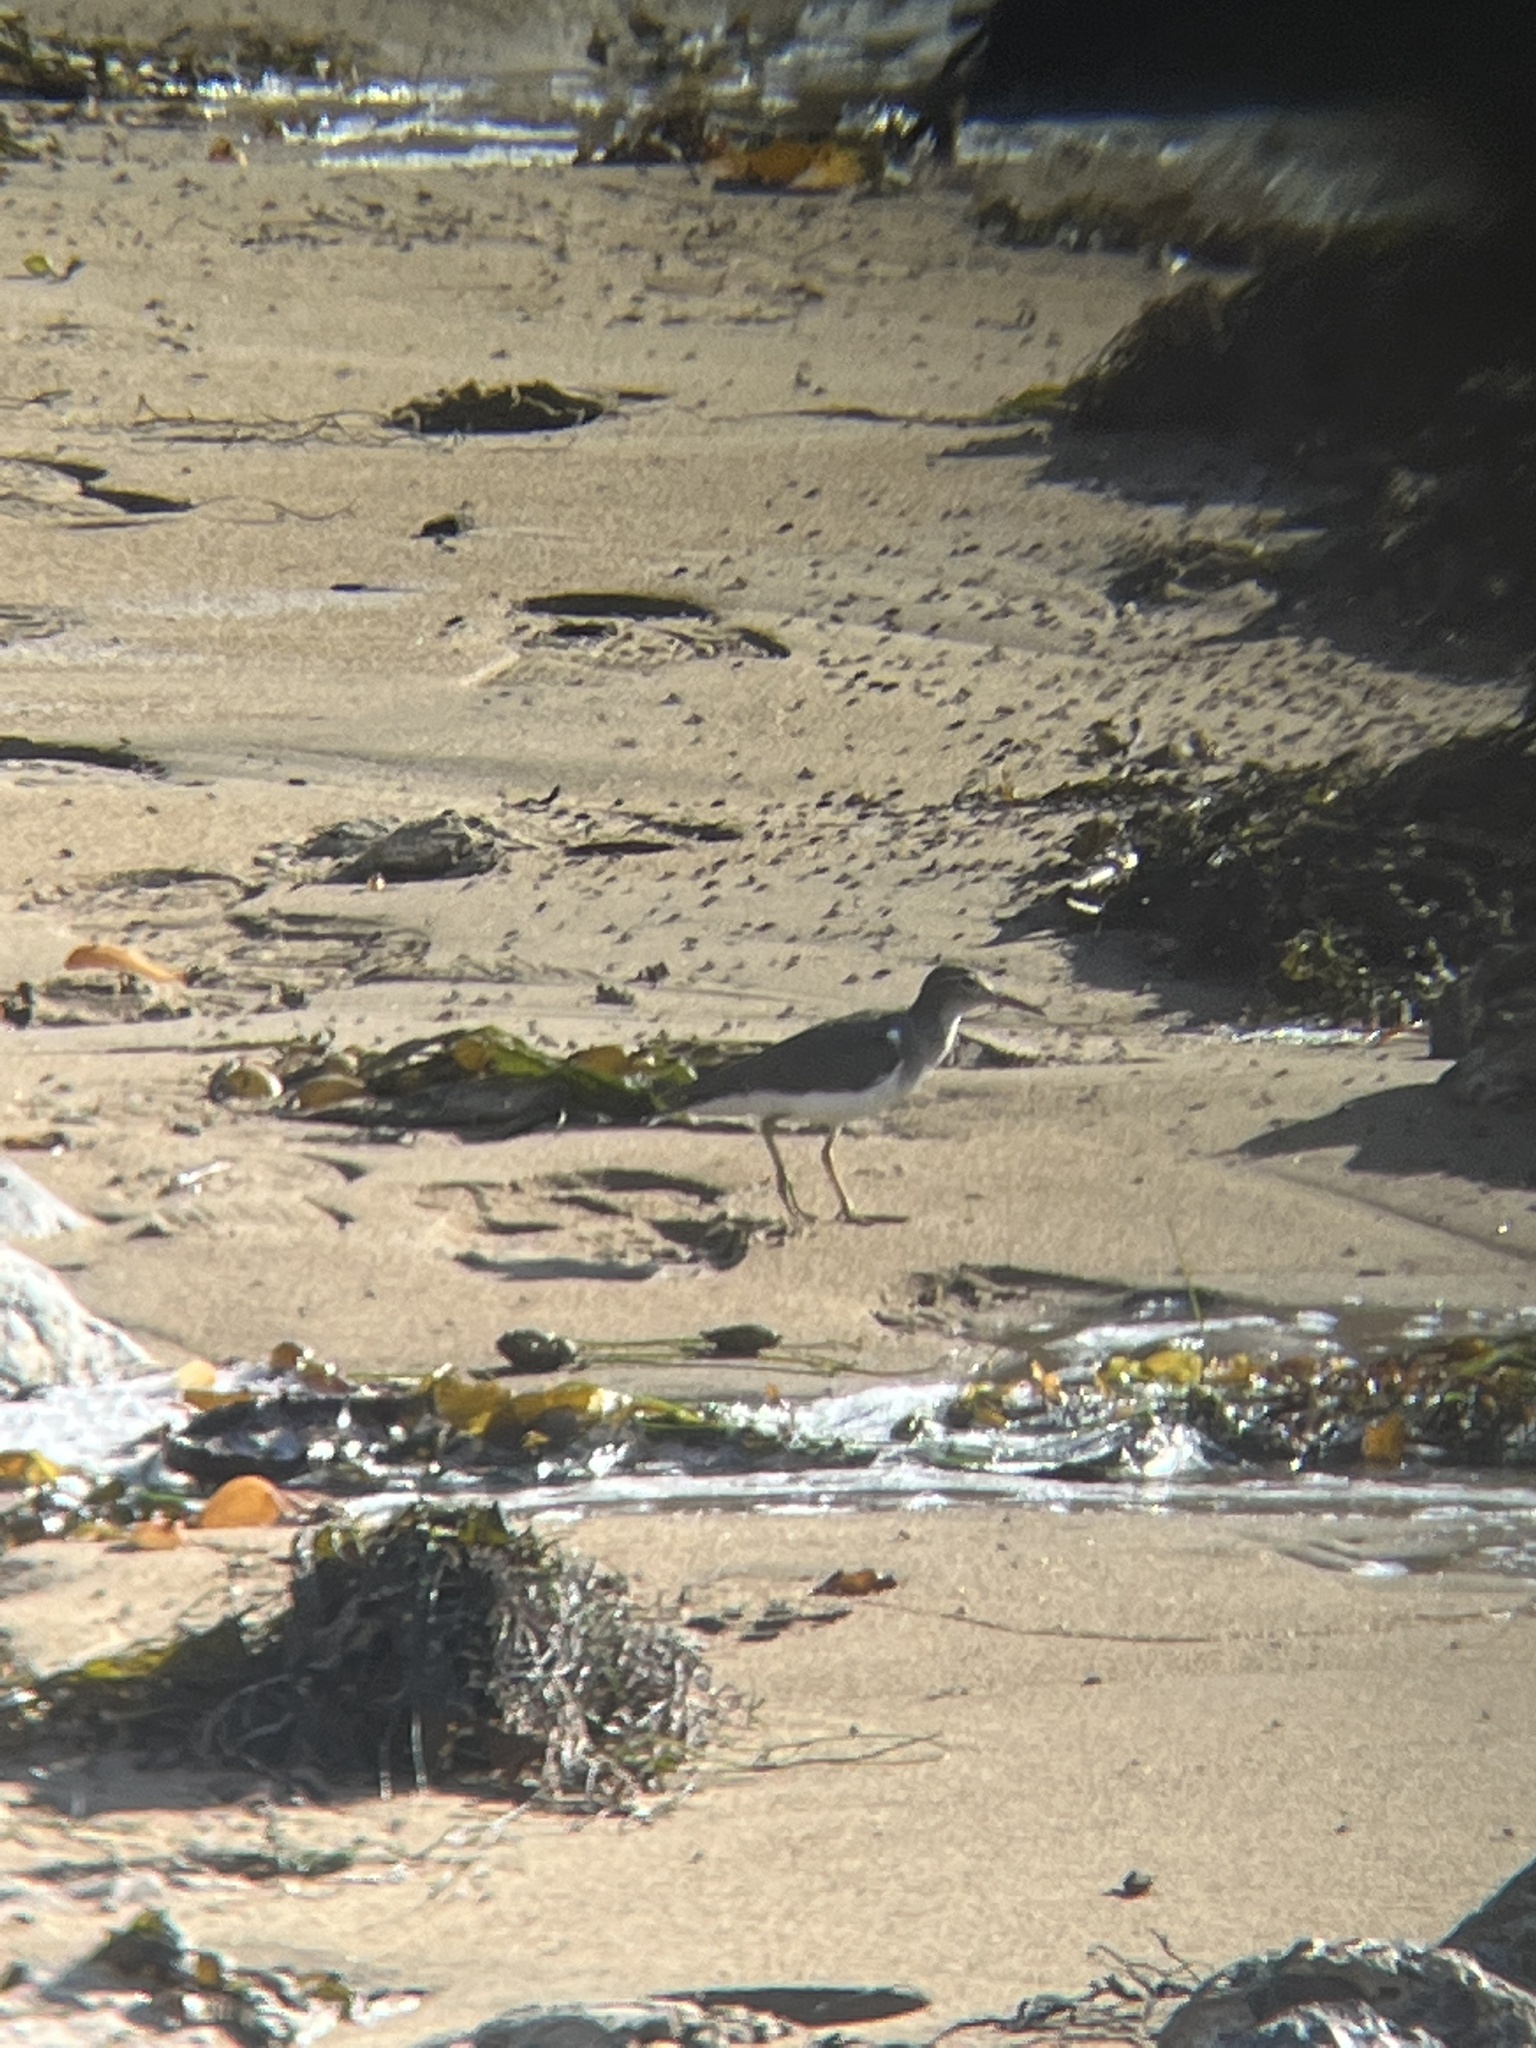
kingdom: Animalia
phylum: Chordata
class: Aves
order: Charadriiformes
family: Scolopacidae
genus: Actitis
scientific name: Actitis macularius
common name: Spotted sandpiper
